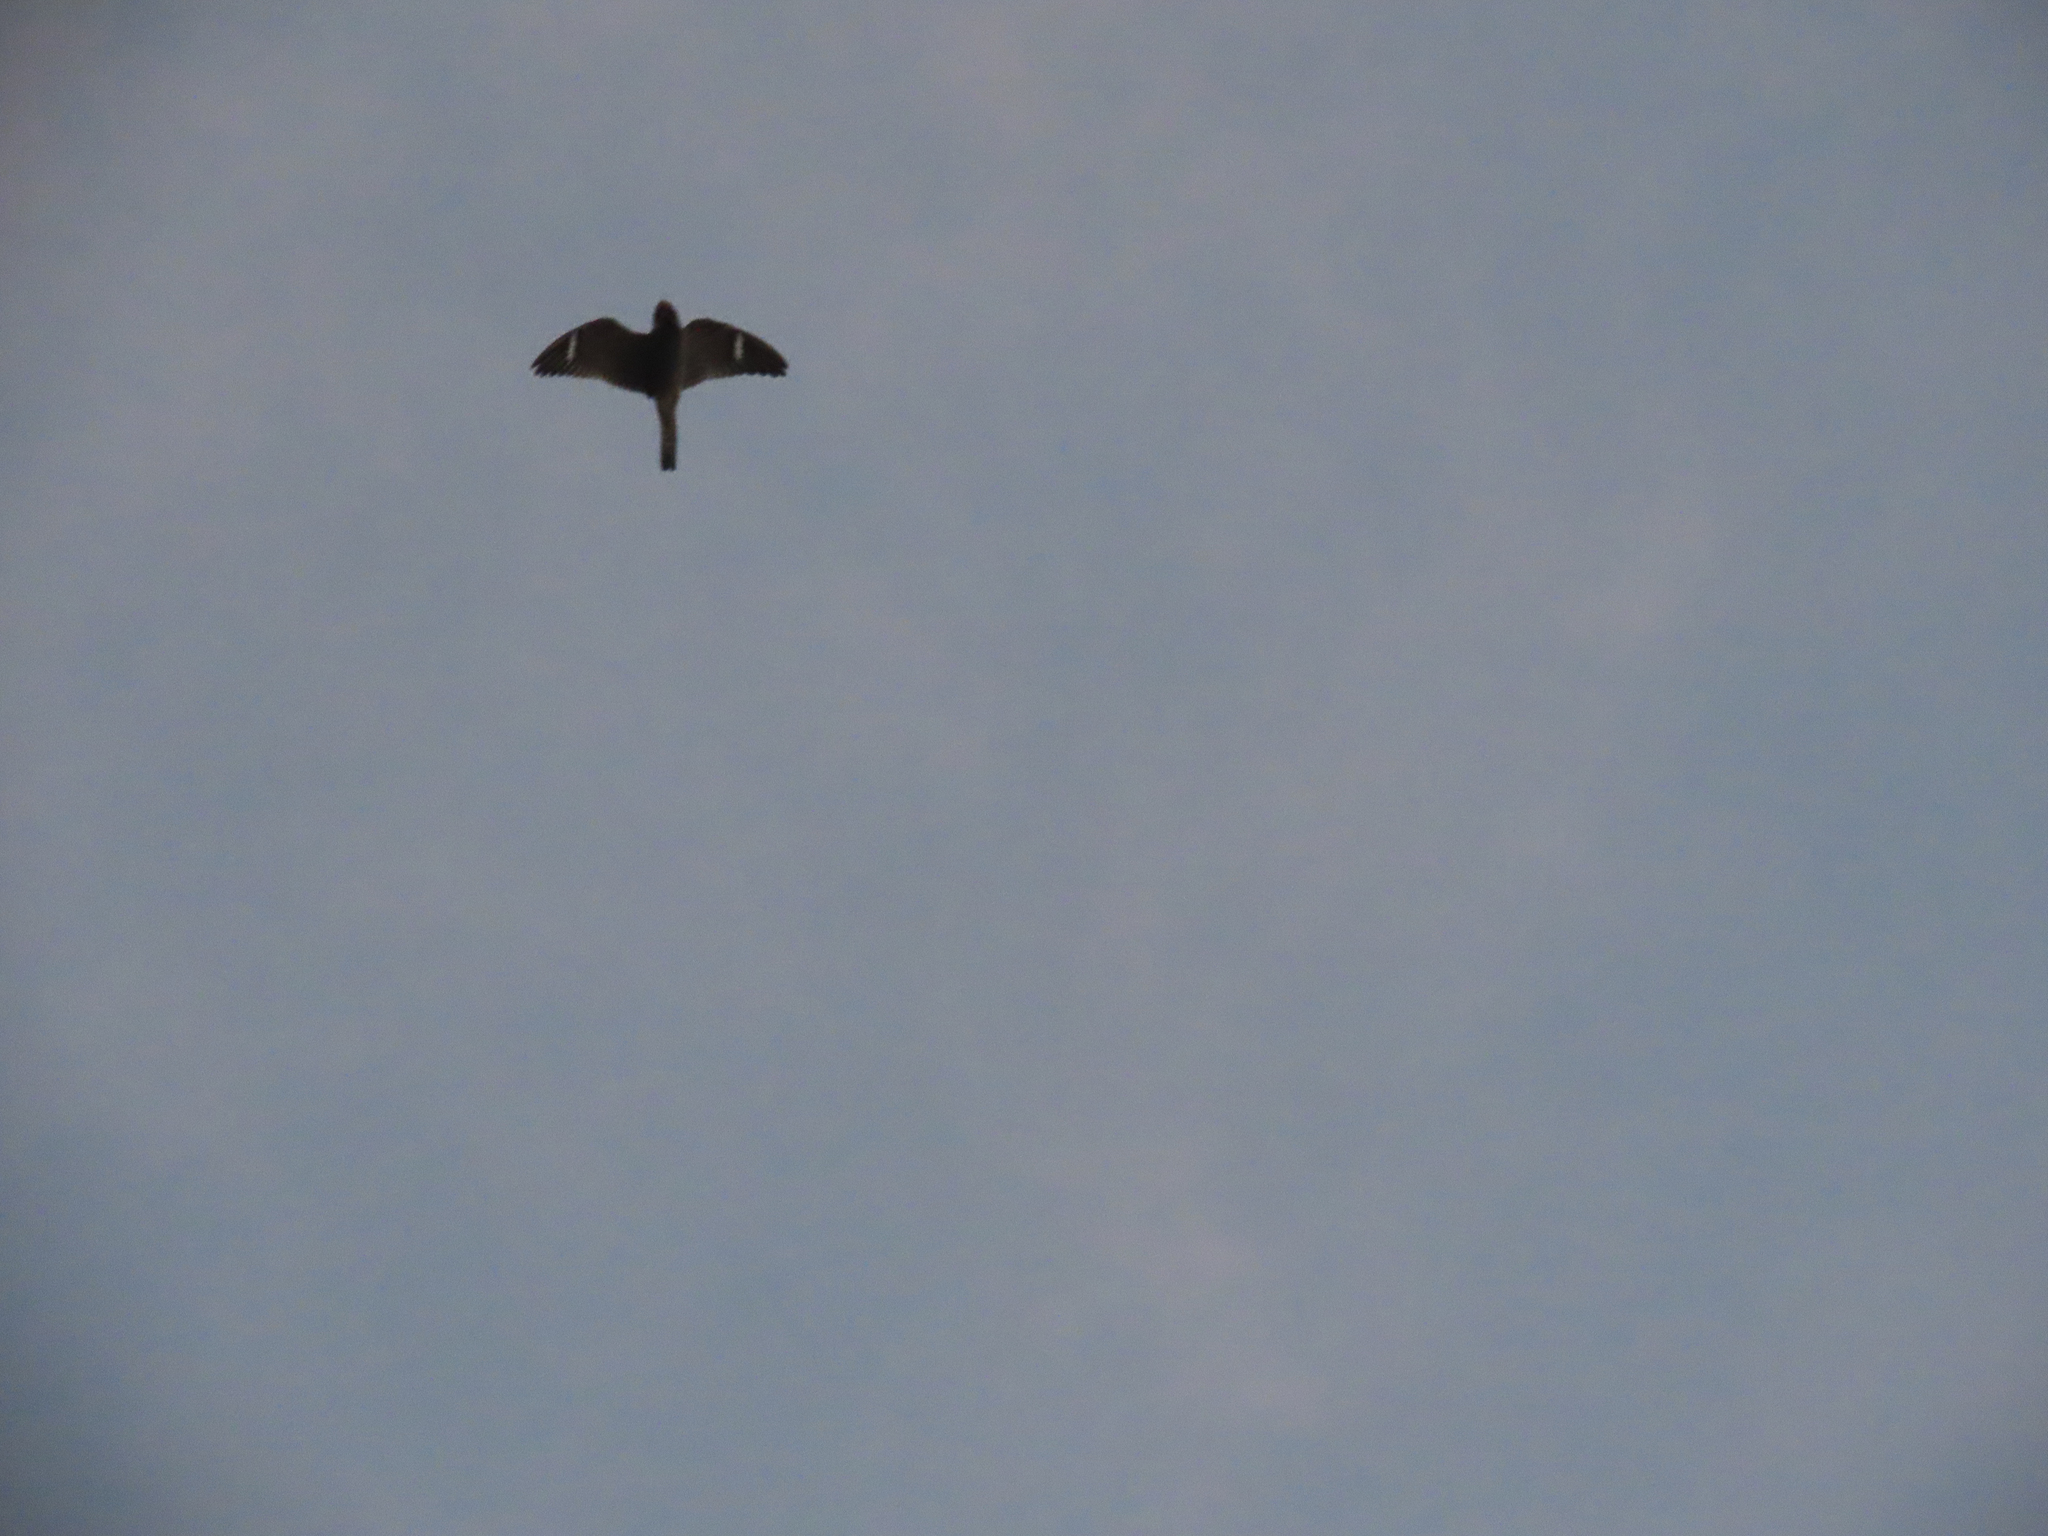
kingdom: Animalia
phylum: Chordata
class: Aves
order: Caprimulgiformes
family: Caprimulgidae
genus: Chordeiles
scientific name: Chordeiles minor
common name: Common nighthawk
